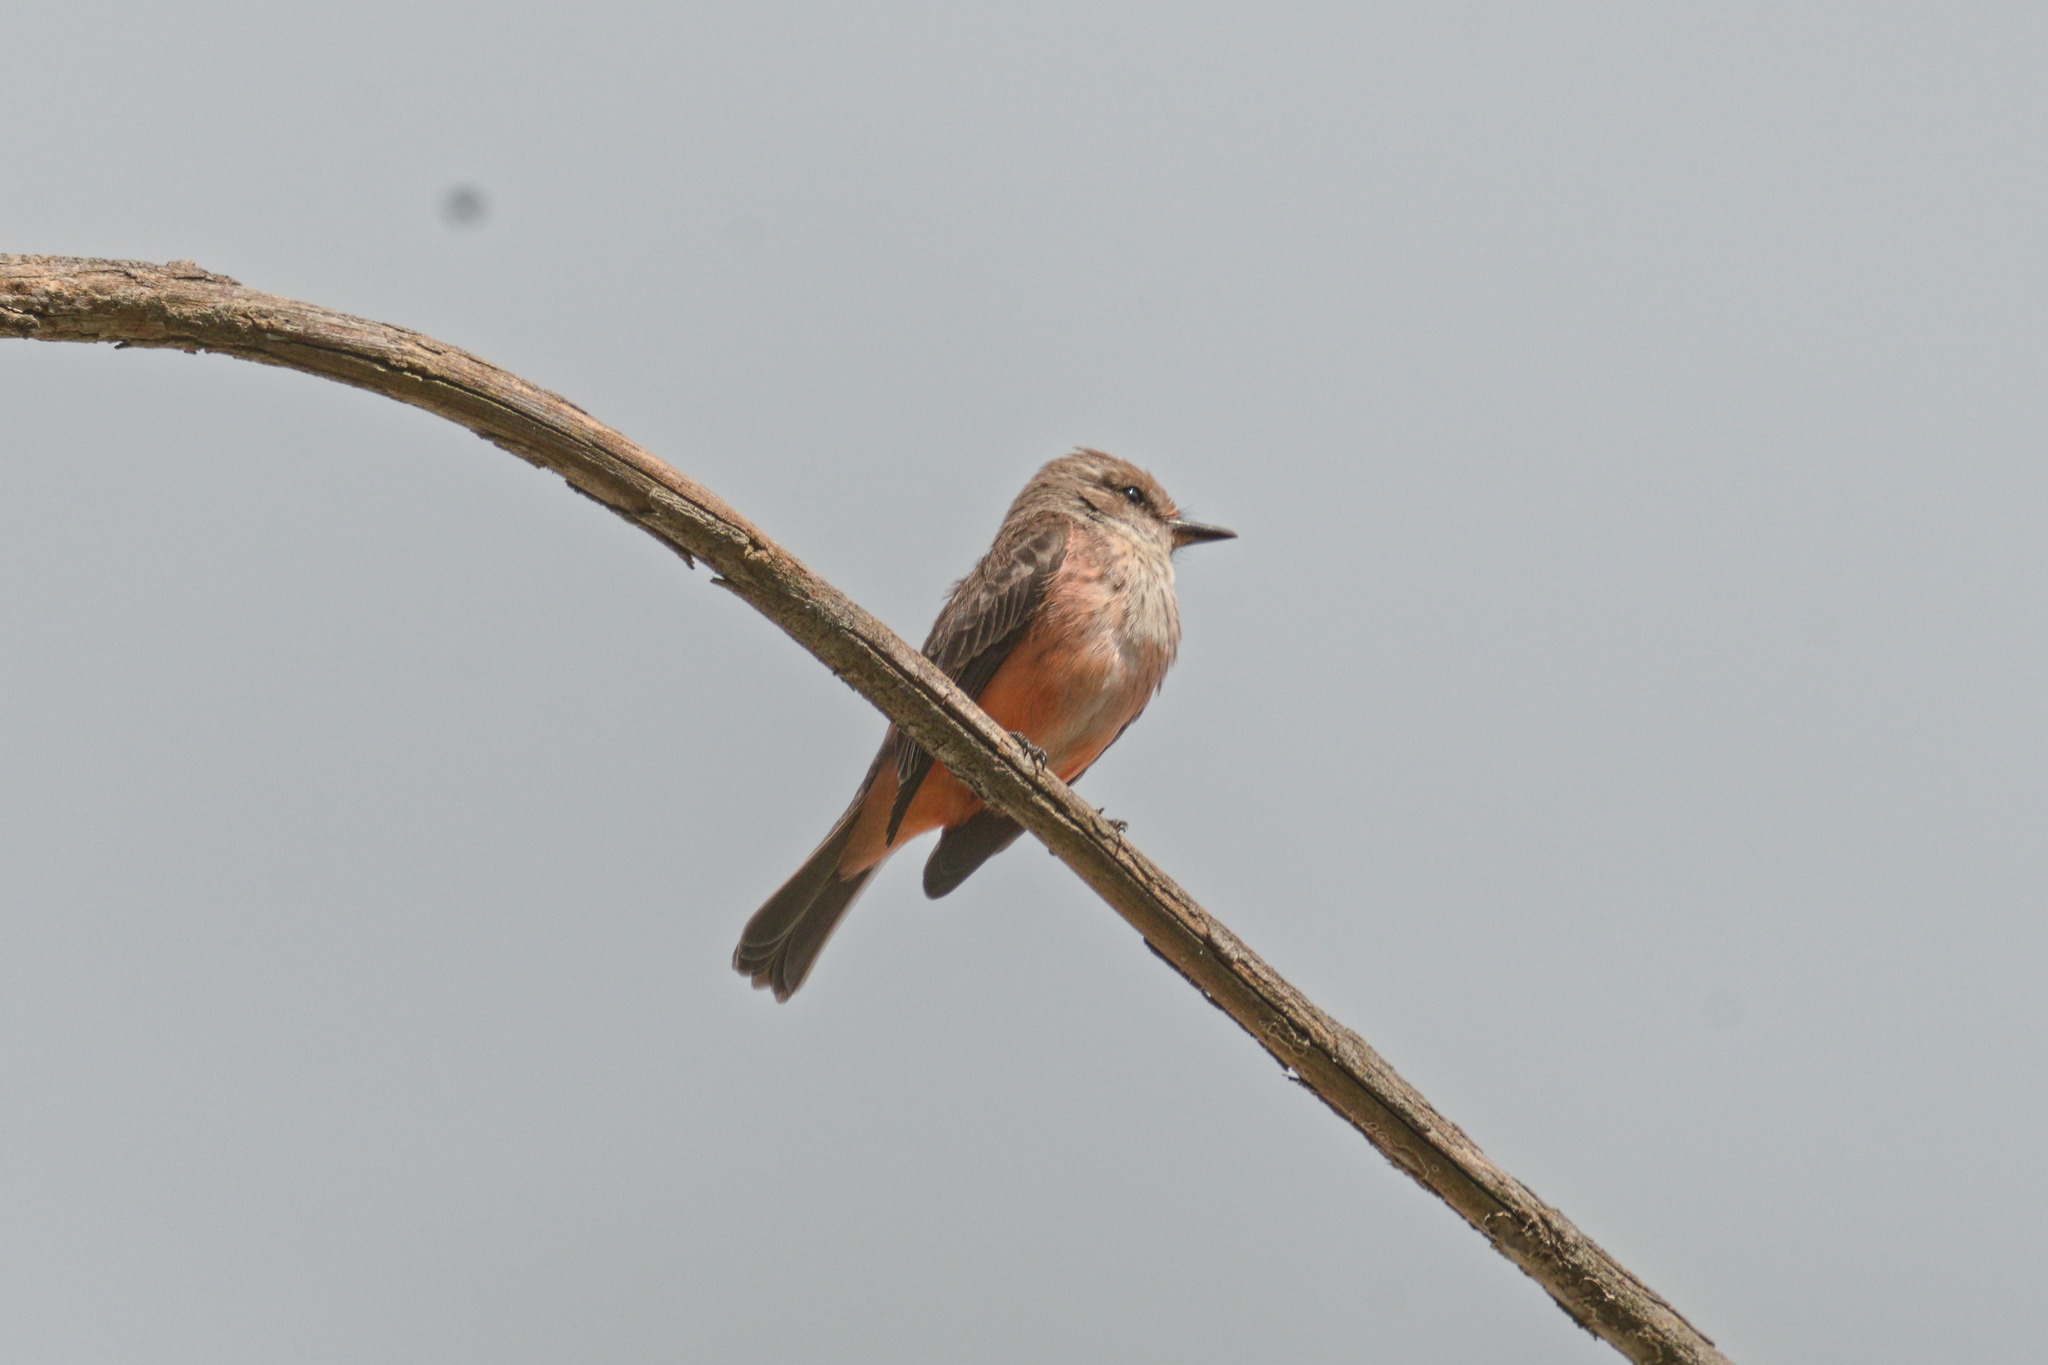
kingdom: Animalia
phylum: Chordata
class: Aves
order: Passeriformes
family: Tyrannidae
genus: Pyrocephalus
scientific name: Pyrocephalus rubinus
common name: Vermilion flycatcher
